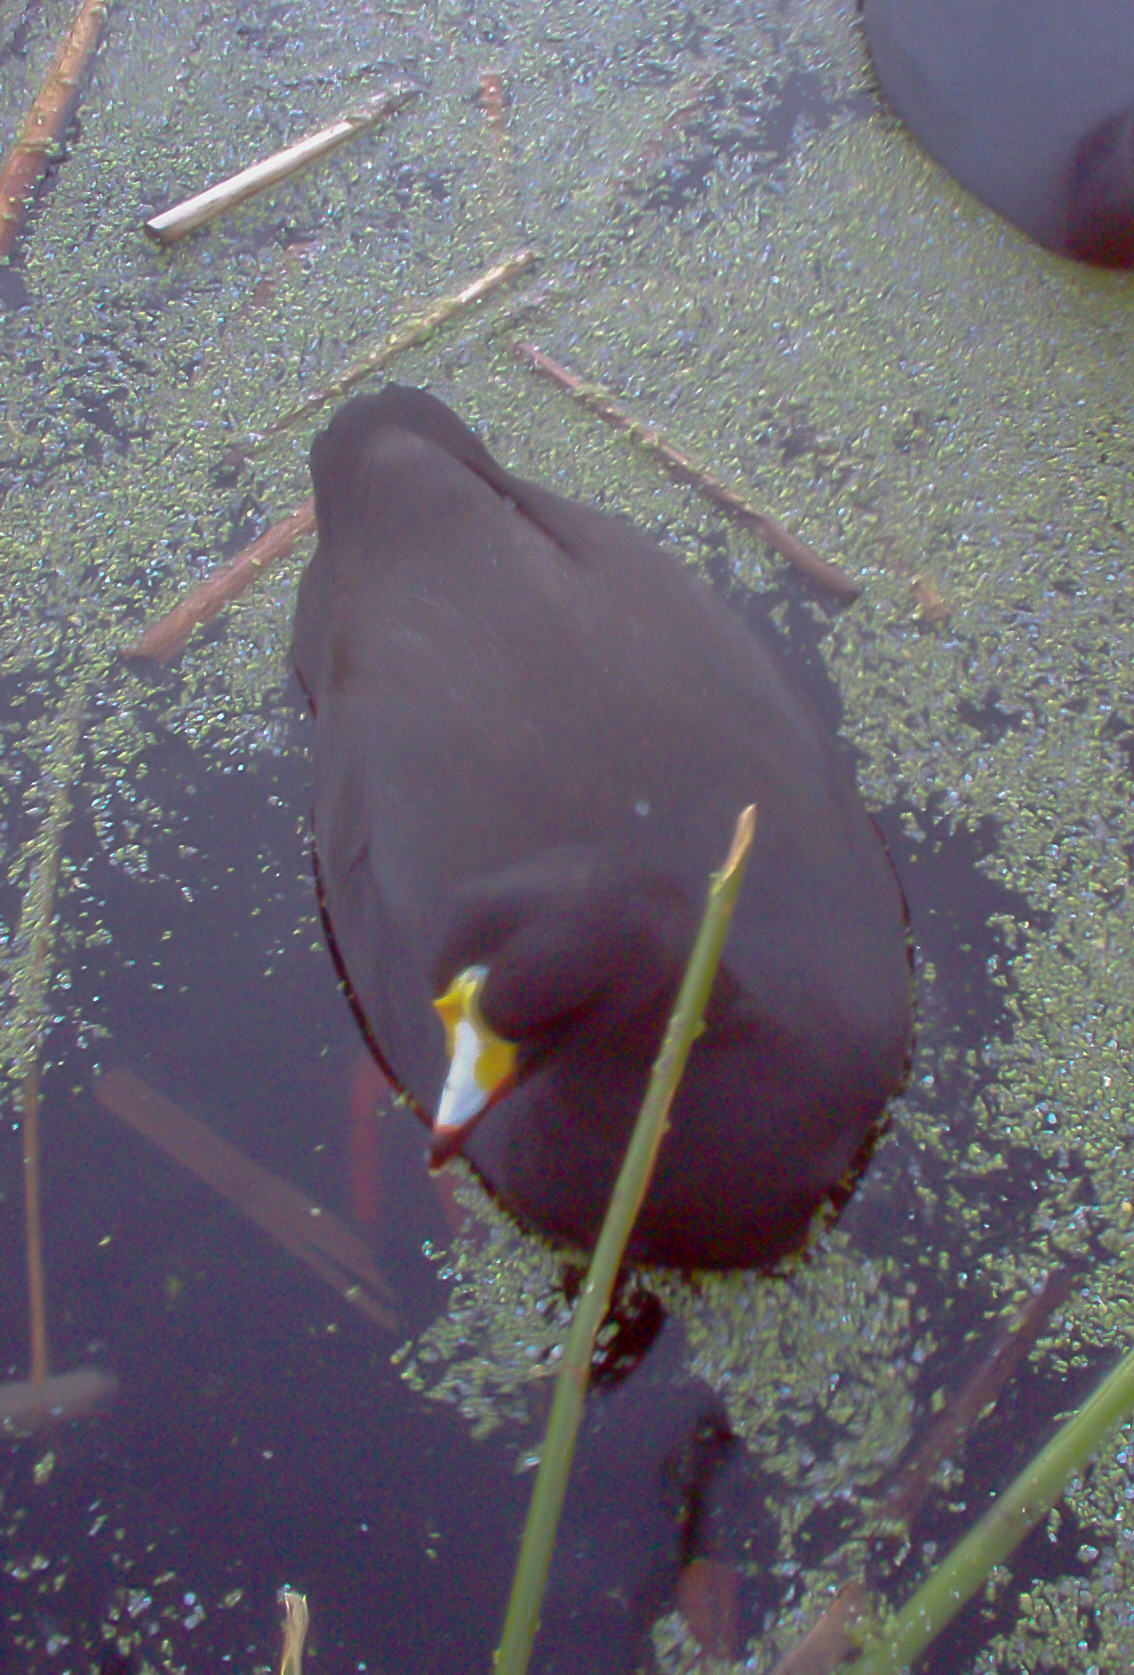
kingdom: Animalia
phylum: Chordata
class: Aves
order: Gruiformes
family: Rallidae
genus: Fulica
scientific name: Fulica gigantea
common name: Giant coot
